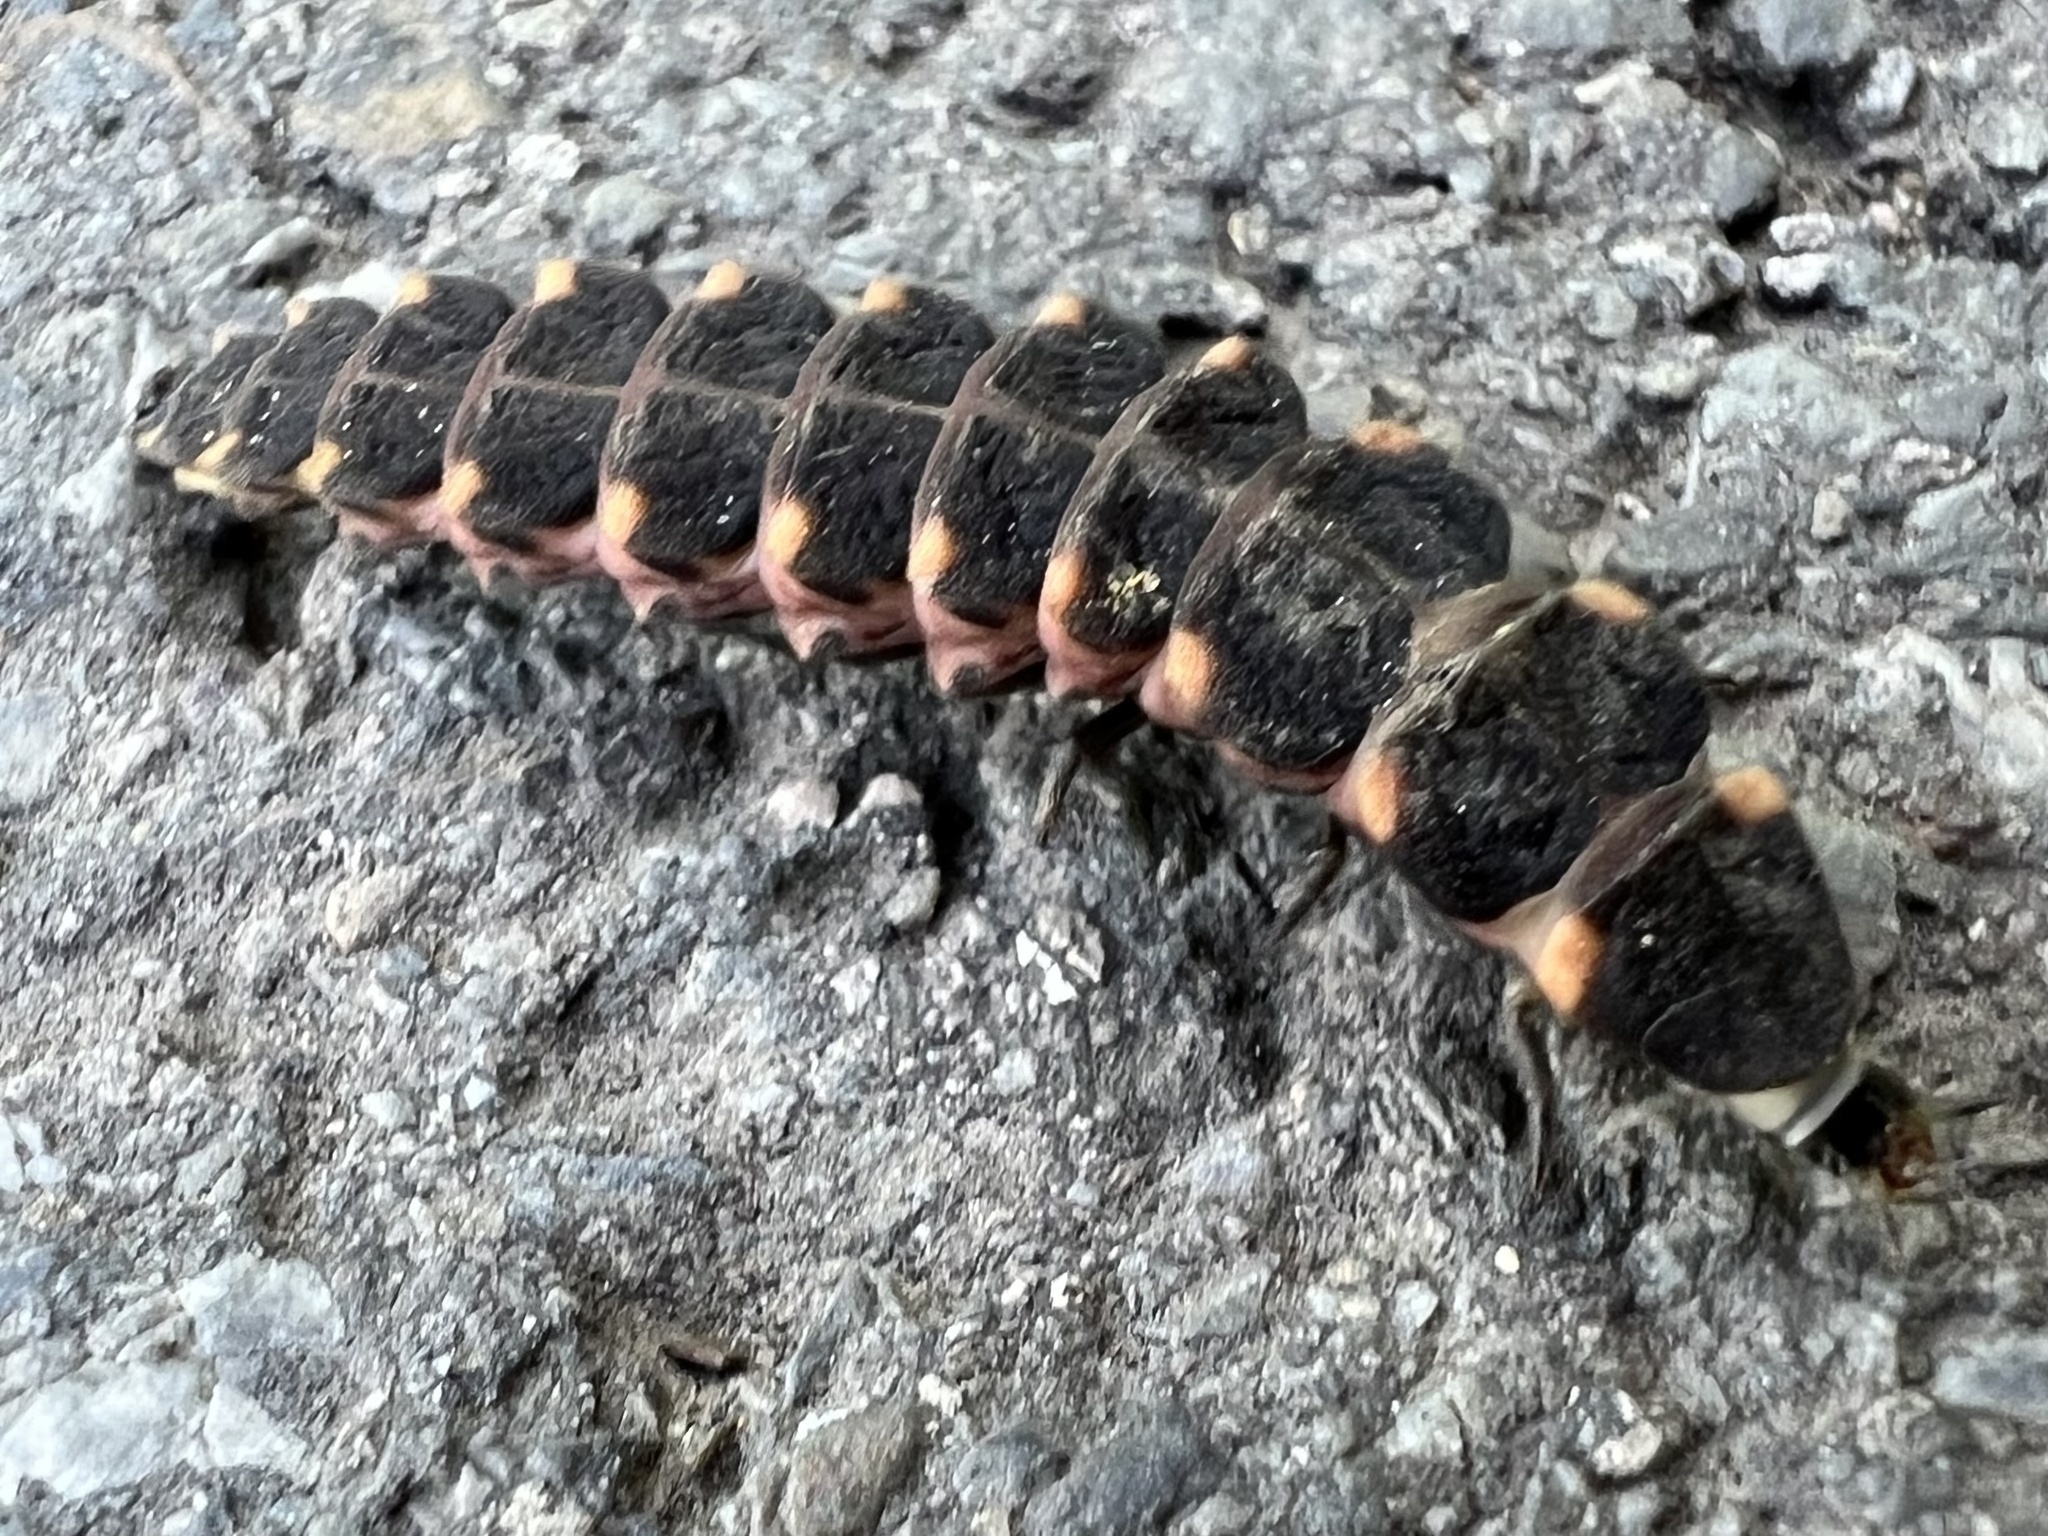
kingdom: Animalia
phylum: Arthropoda
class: Insecta
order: Coleoptera
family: Lampyridae
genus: Lampyris
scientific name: Lampyris noctiluca
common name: Glow-worm
